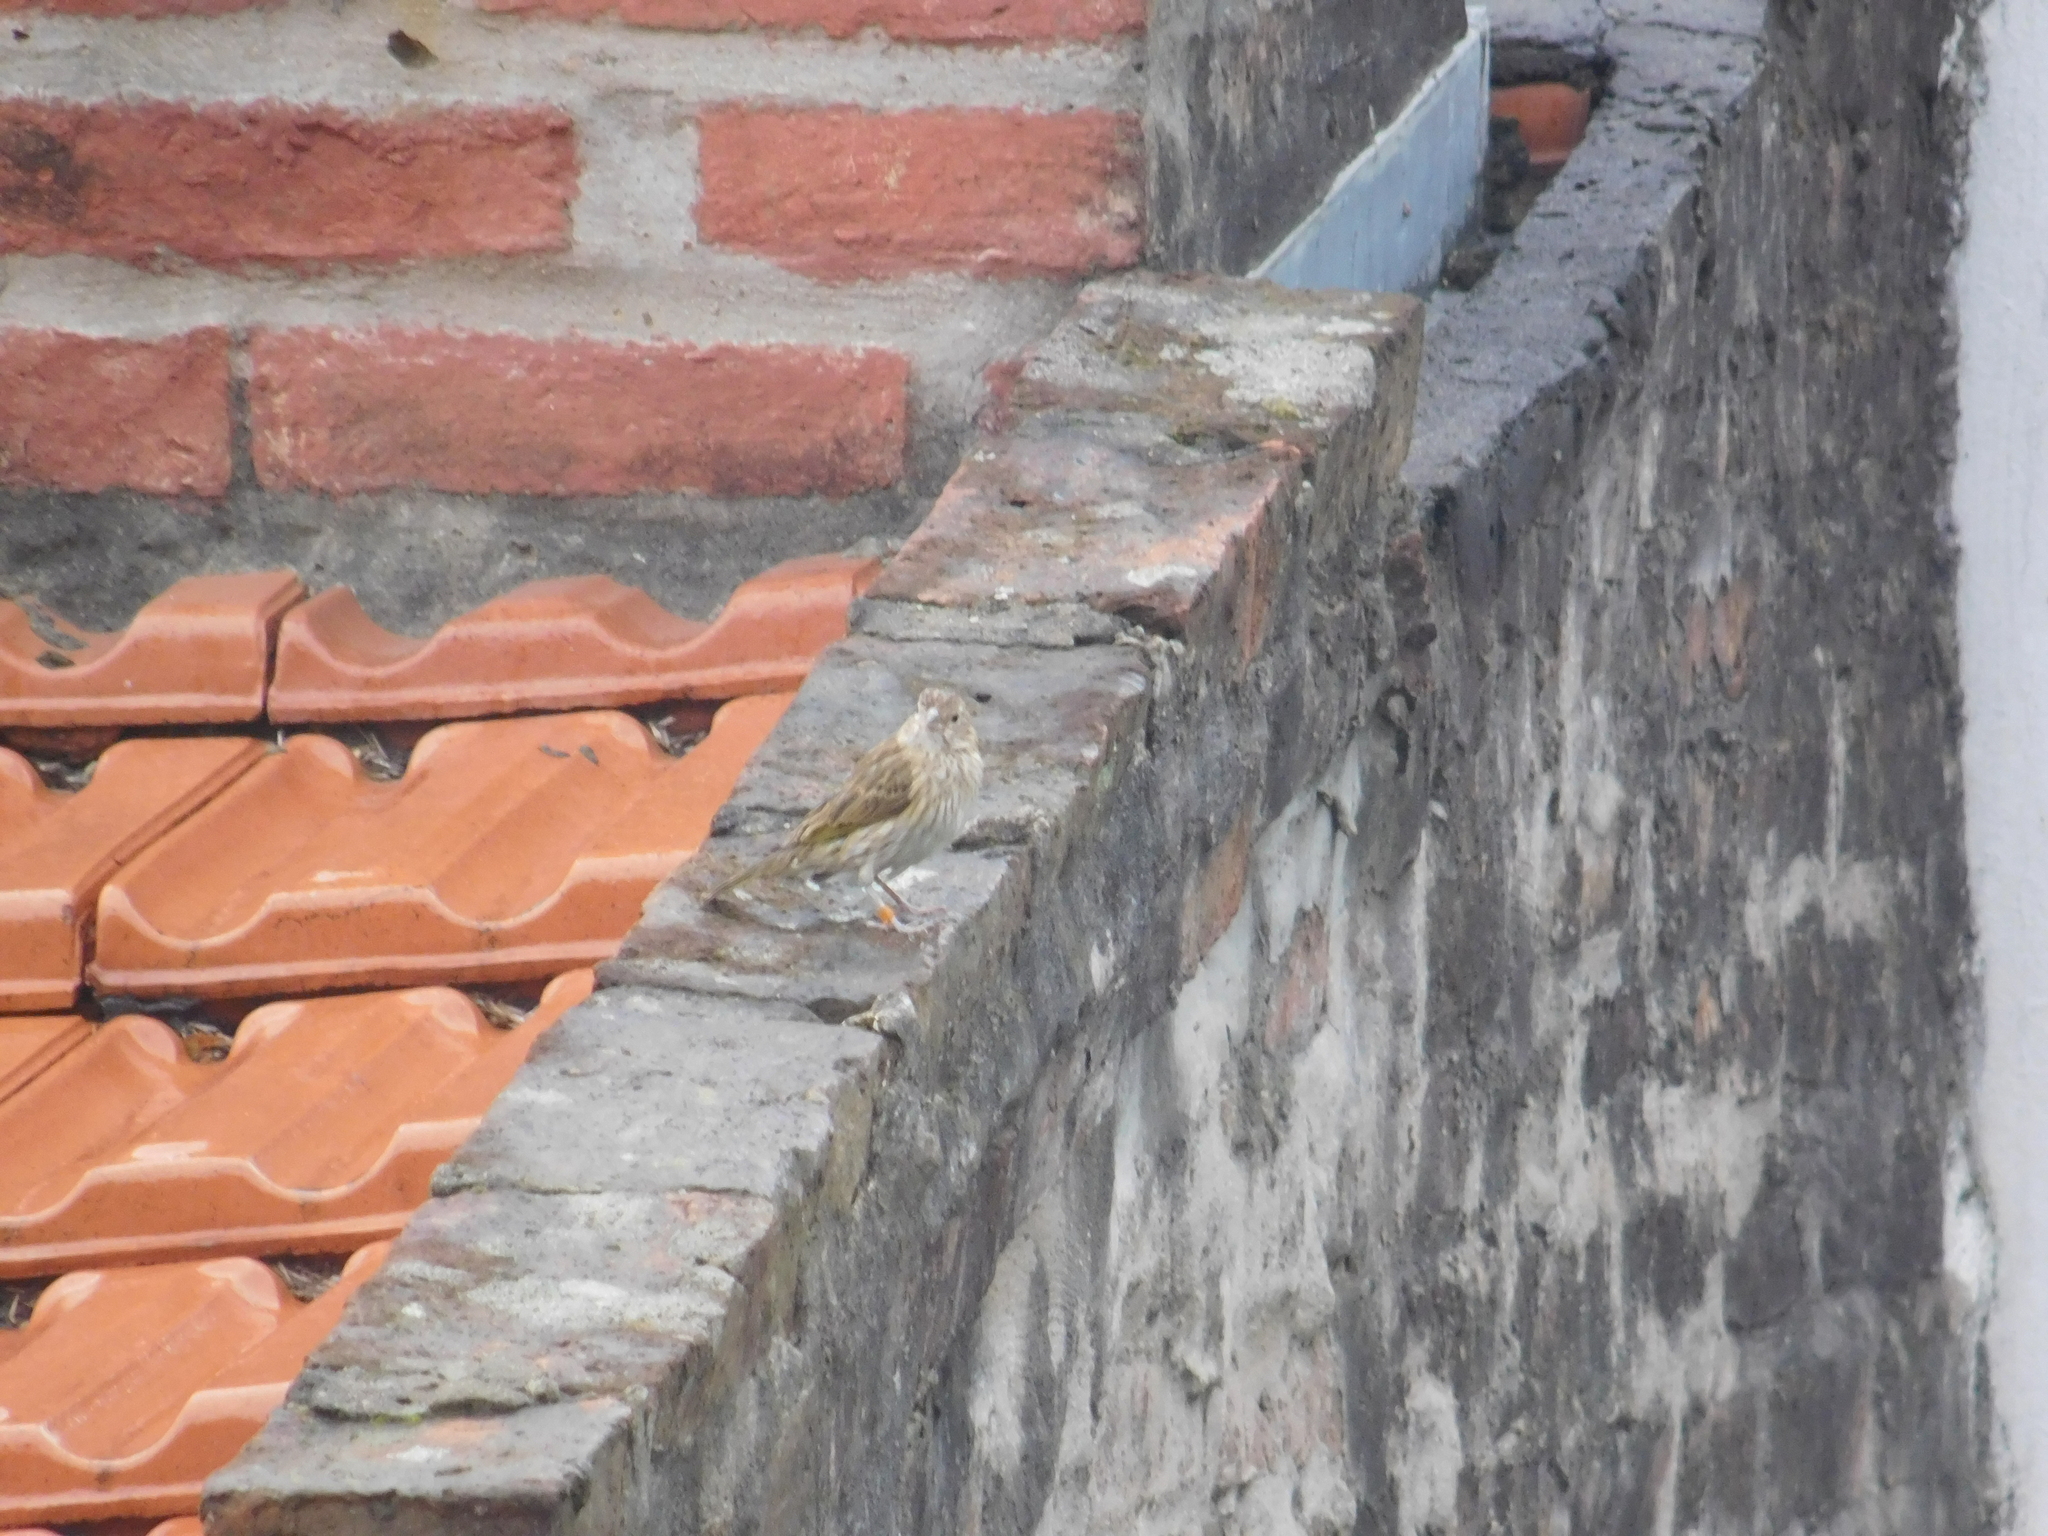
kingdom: Animalia
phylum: Chordata
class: Aves
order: Passeriformes
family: Thraupidae
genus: Sicalis
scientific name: Sicalis flaveola
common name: Saffron finch
